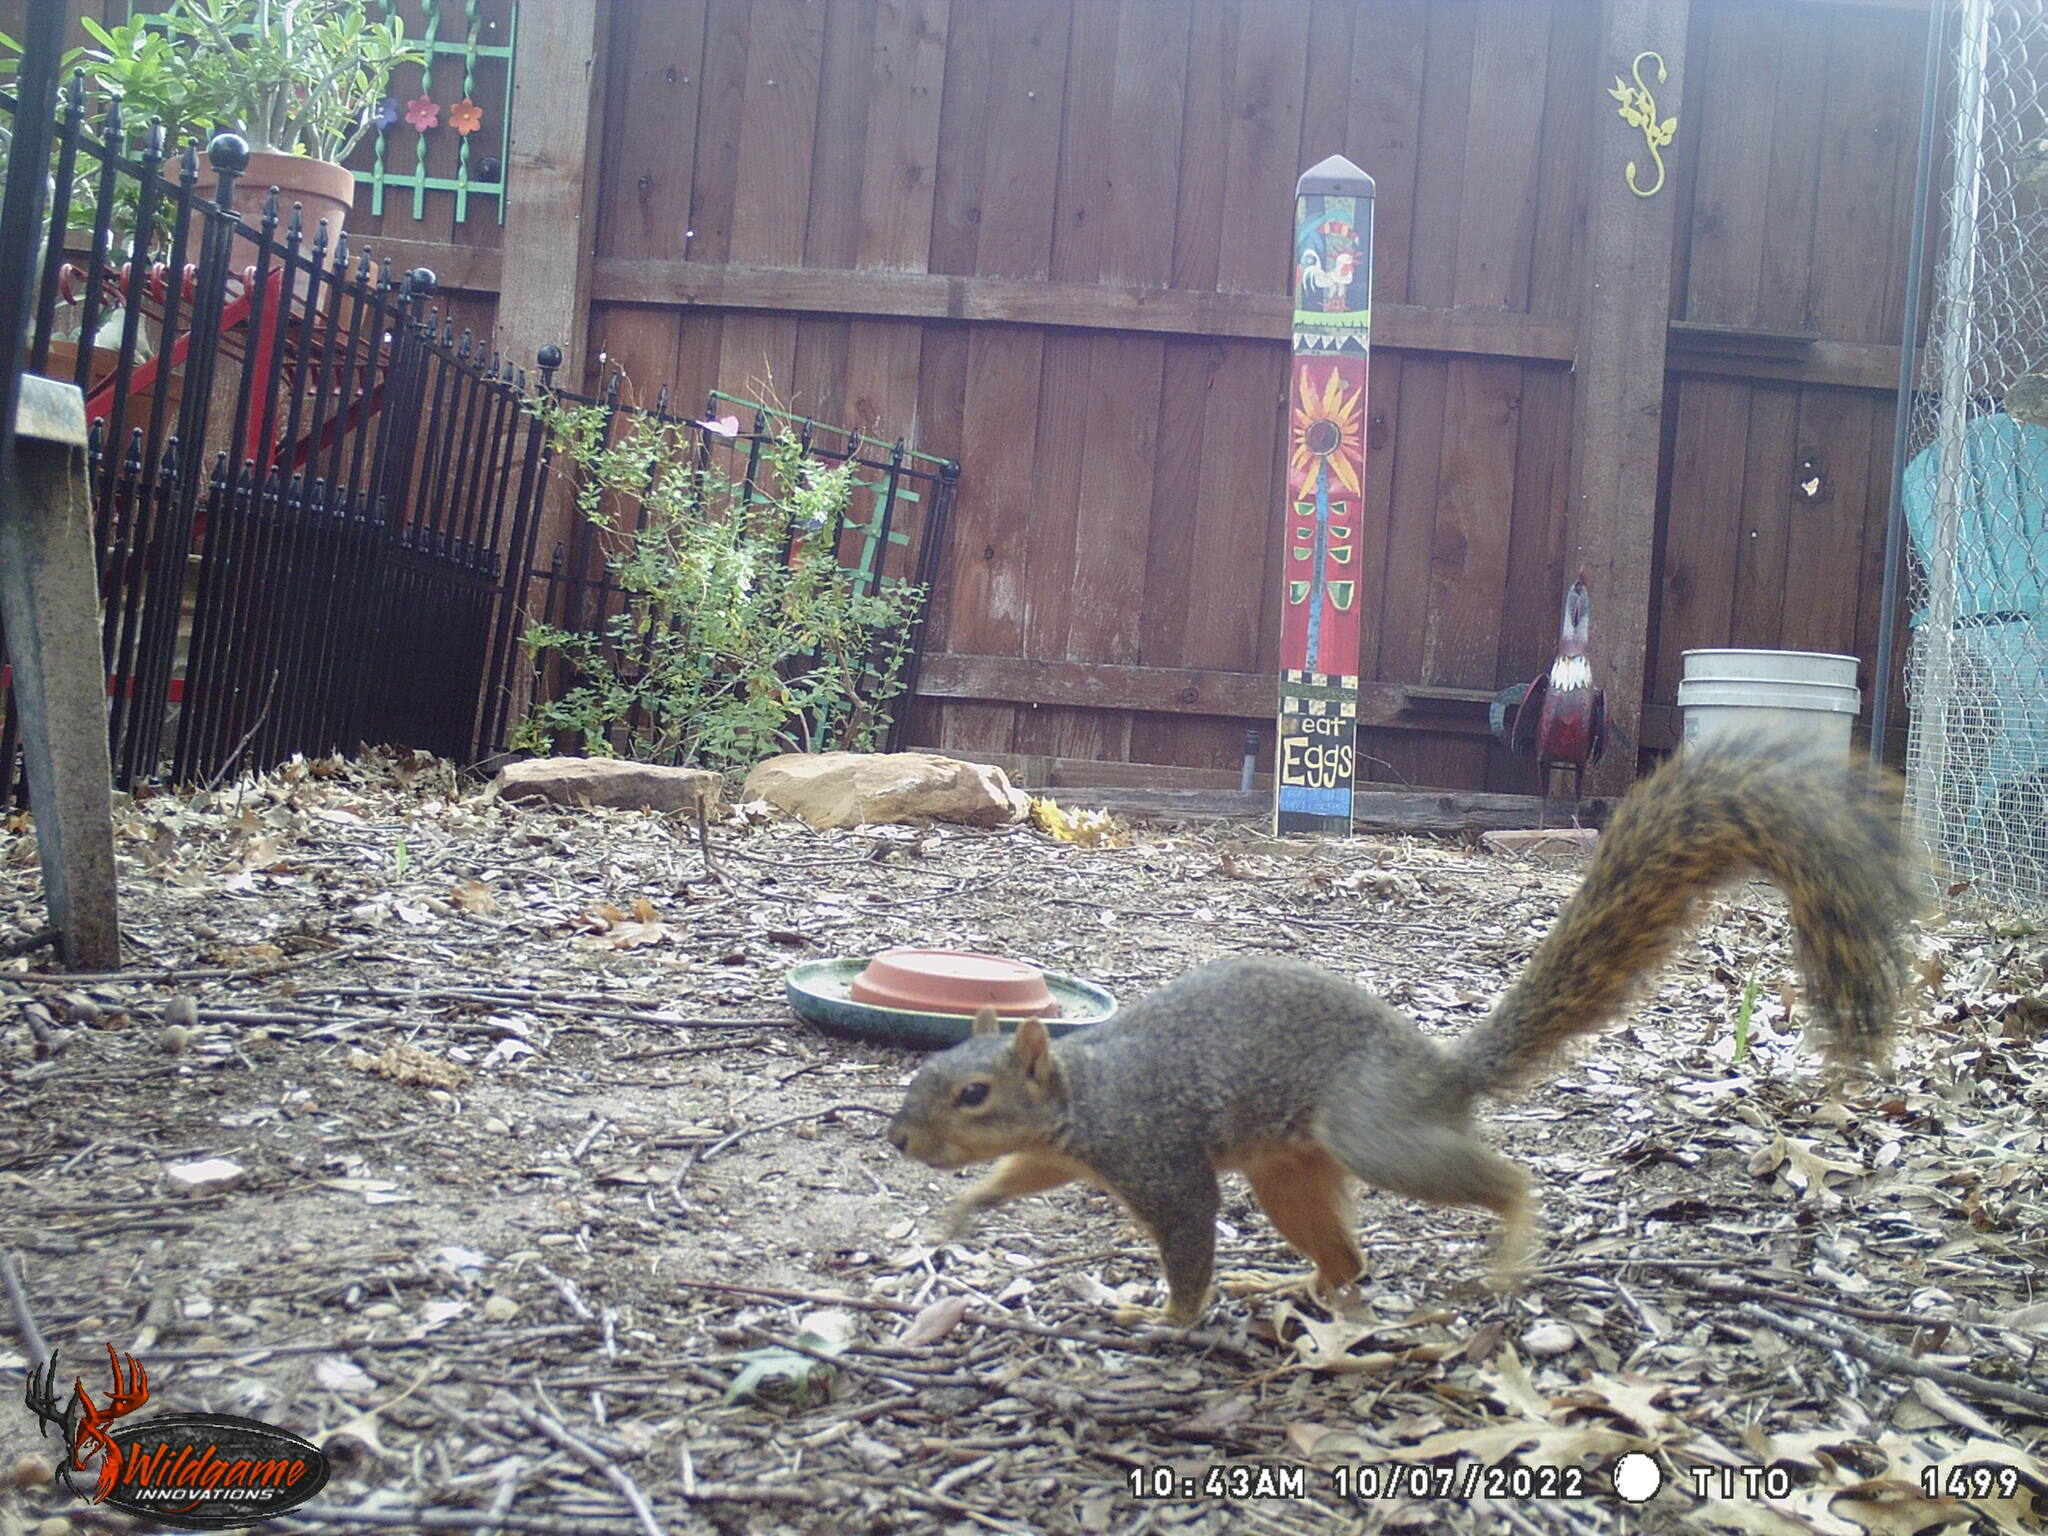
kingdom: Animalia
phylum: Chordata
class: Mammalia
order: Rodentia
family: Sciuridae
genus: Sciurus
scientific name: Sciurus niger
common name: Fox squirrel
